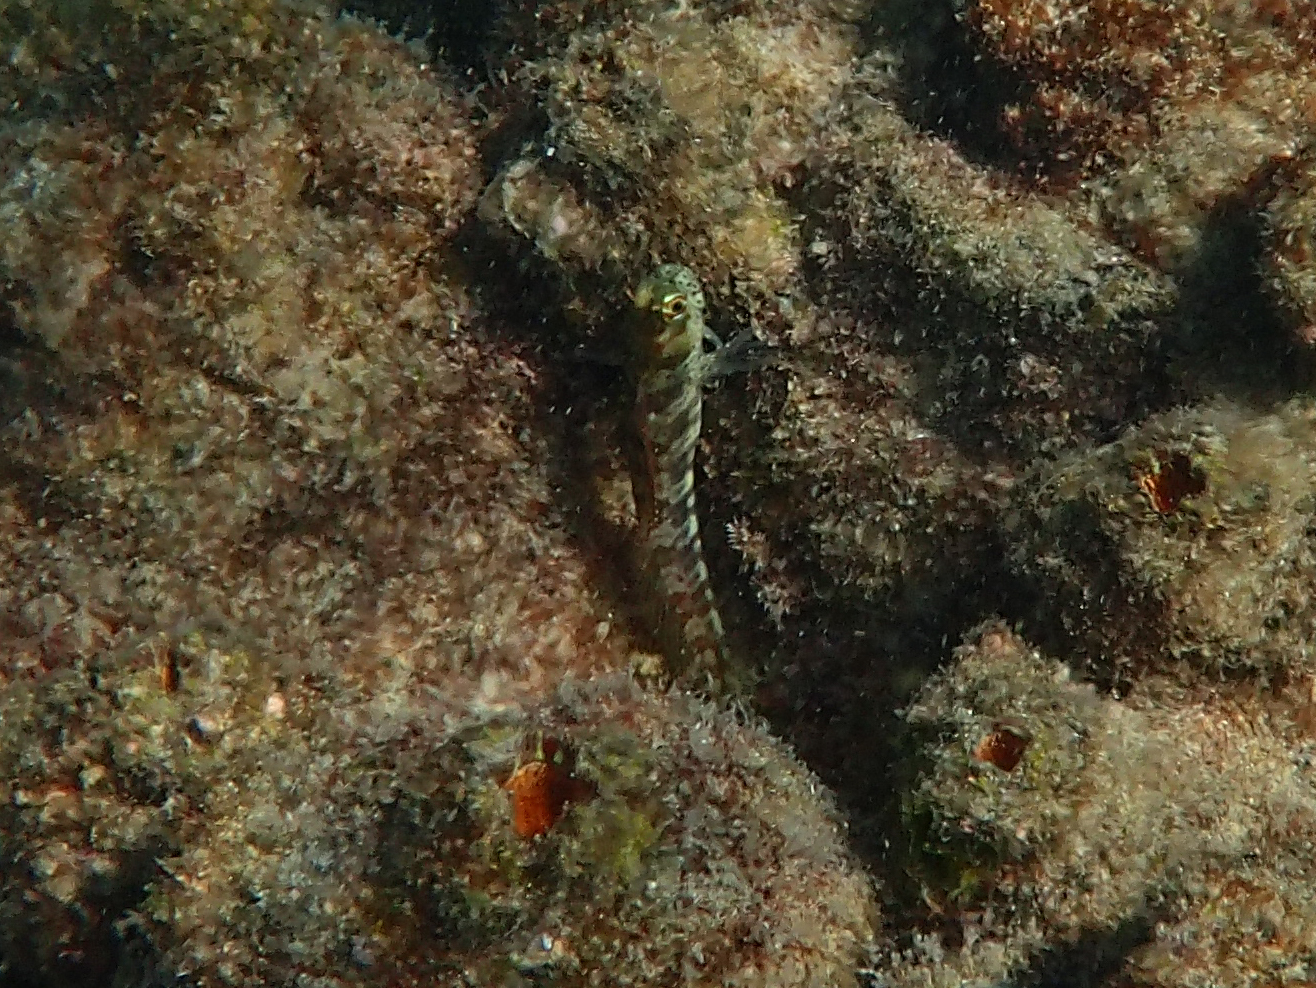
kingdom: Animalia
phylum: Chordata
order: Perciformes
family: Blenniidae
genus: Istiblennius
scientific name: Istiblennius meleagris
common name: Peacock rockskipper
